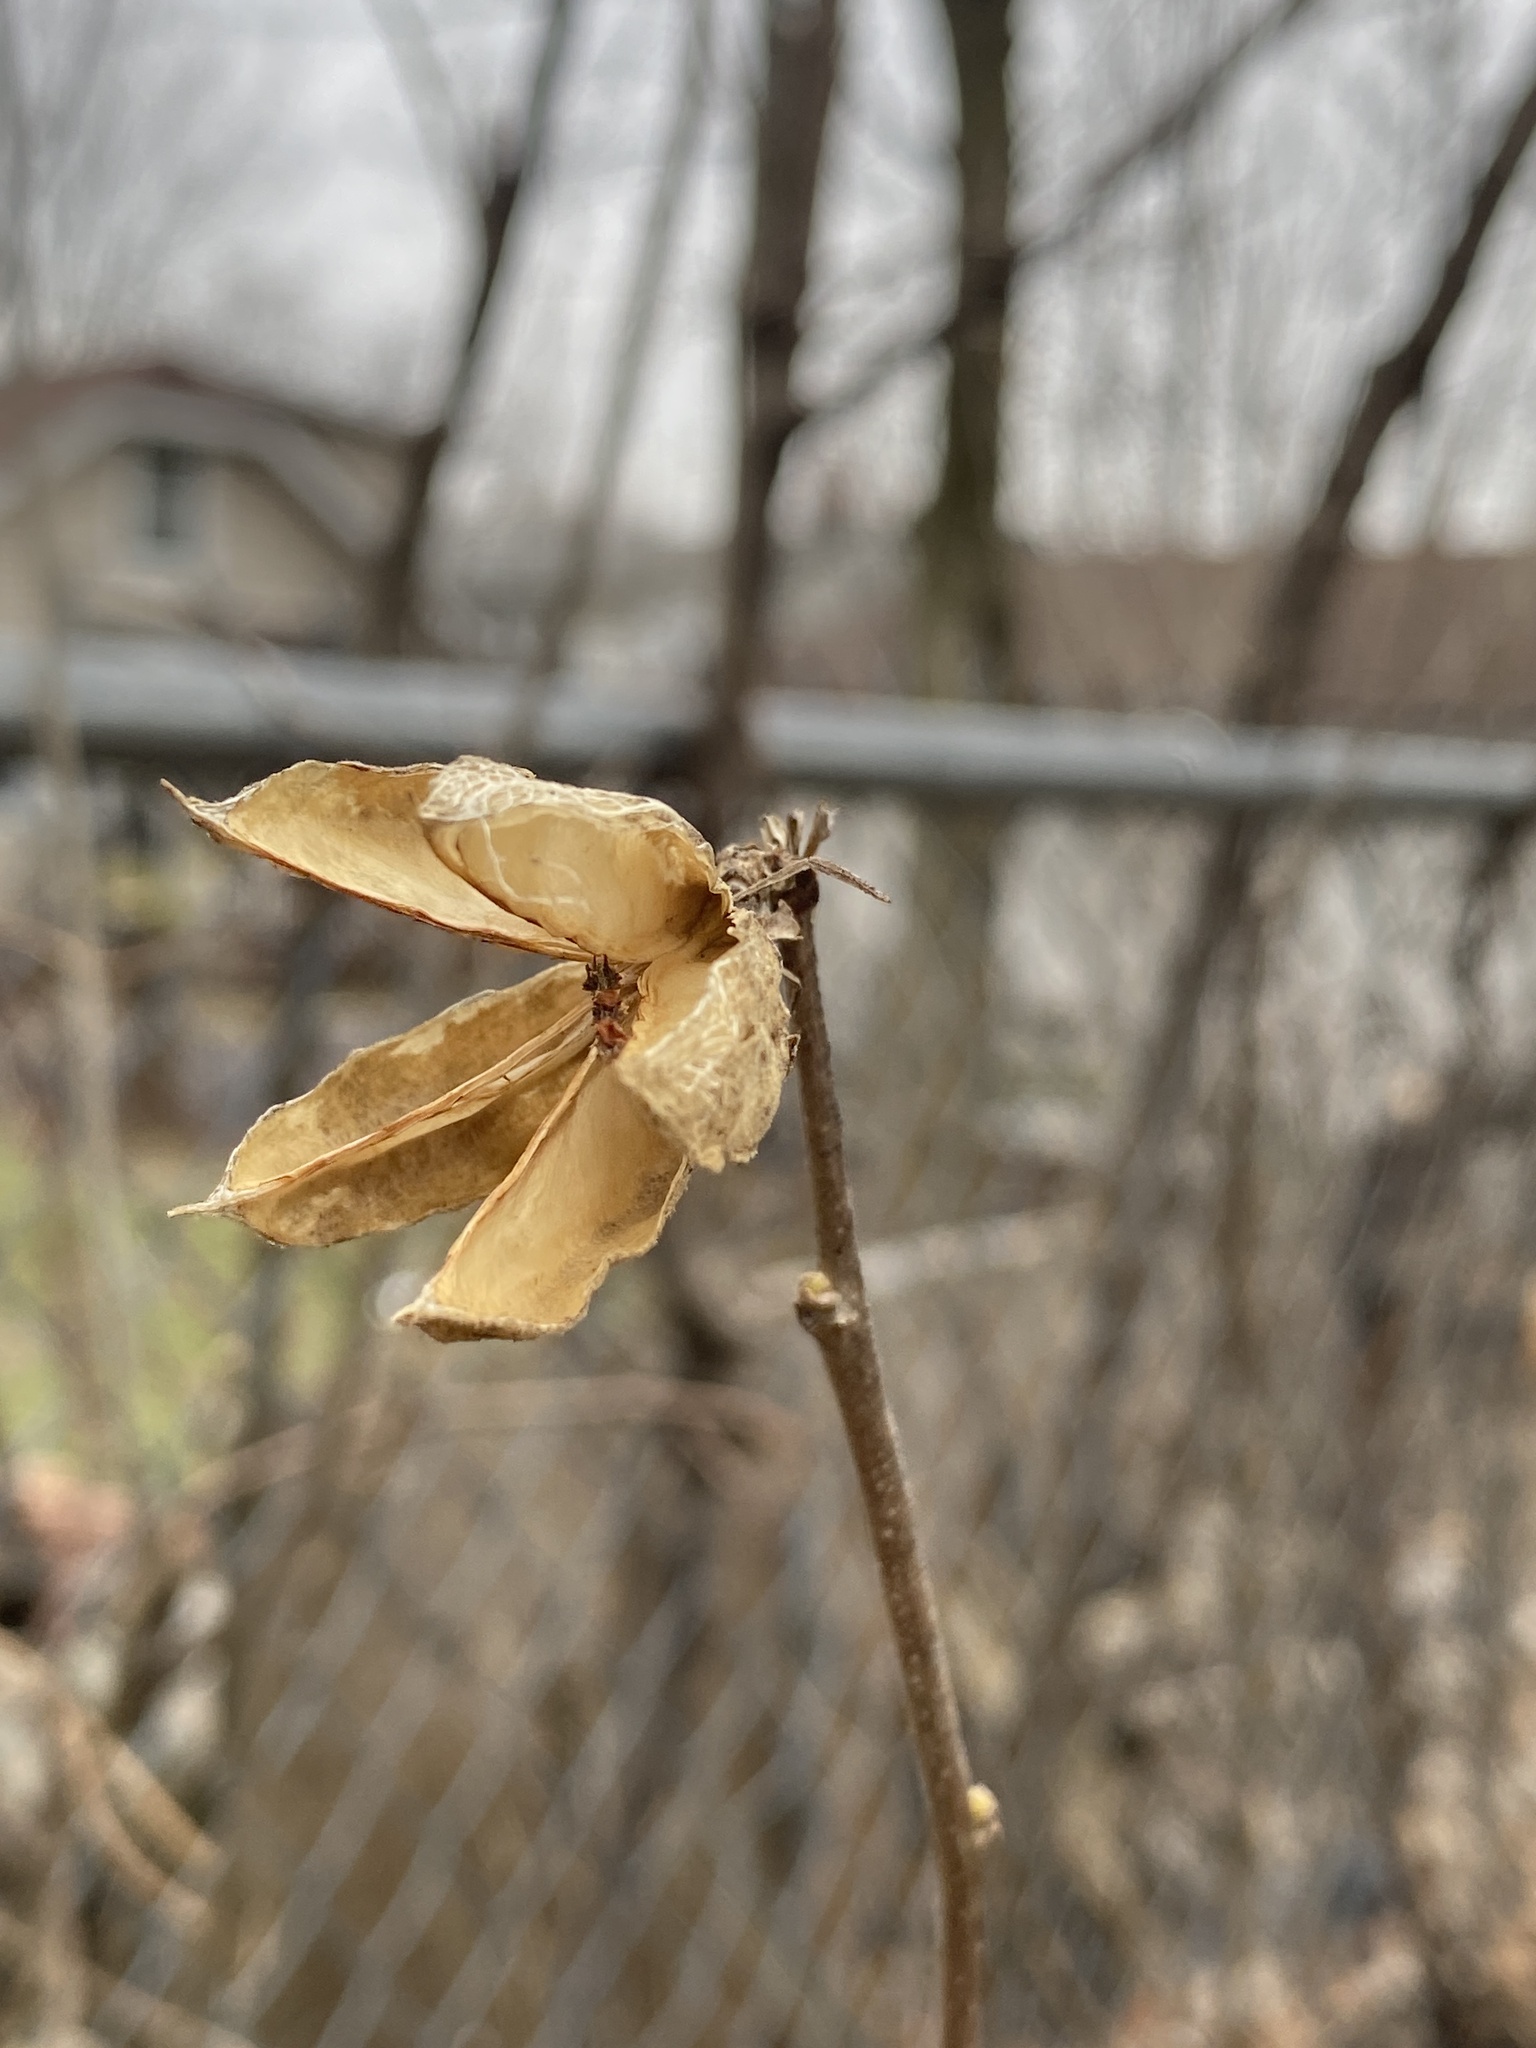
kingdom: Plantae
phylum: Tracheophyta
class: Magnoliopsida
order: Malvales
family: Malvaceae
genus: Hibiscus
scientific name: Hibiscus syriacus
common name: Syrian ketmia
